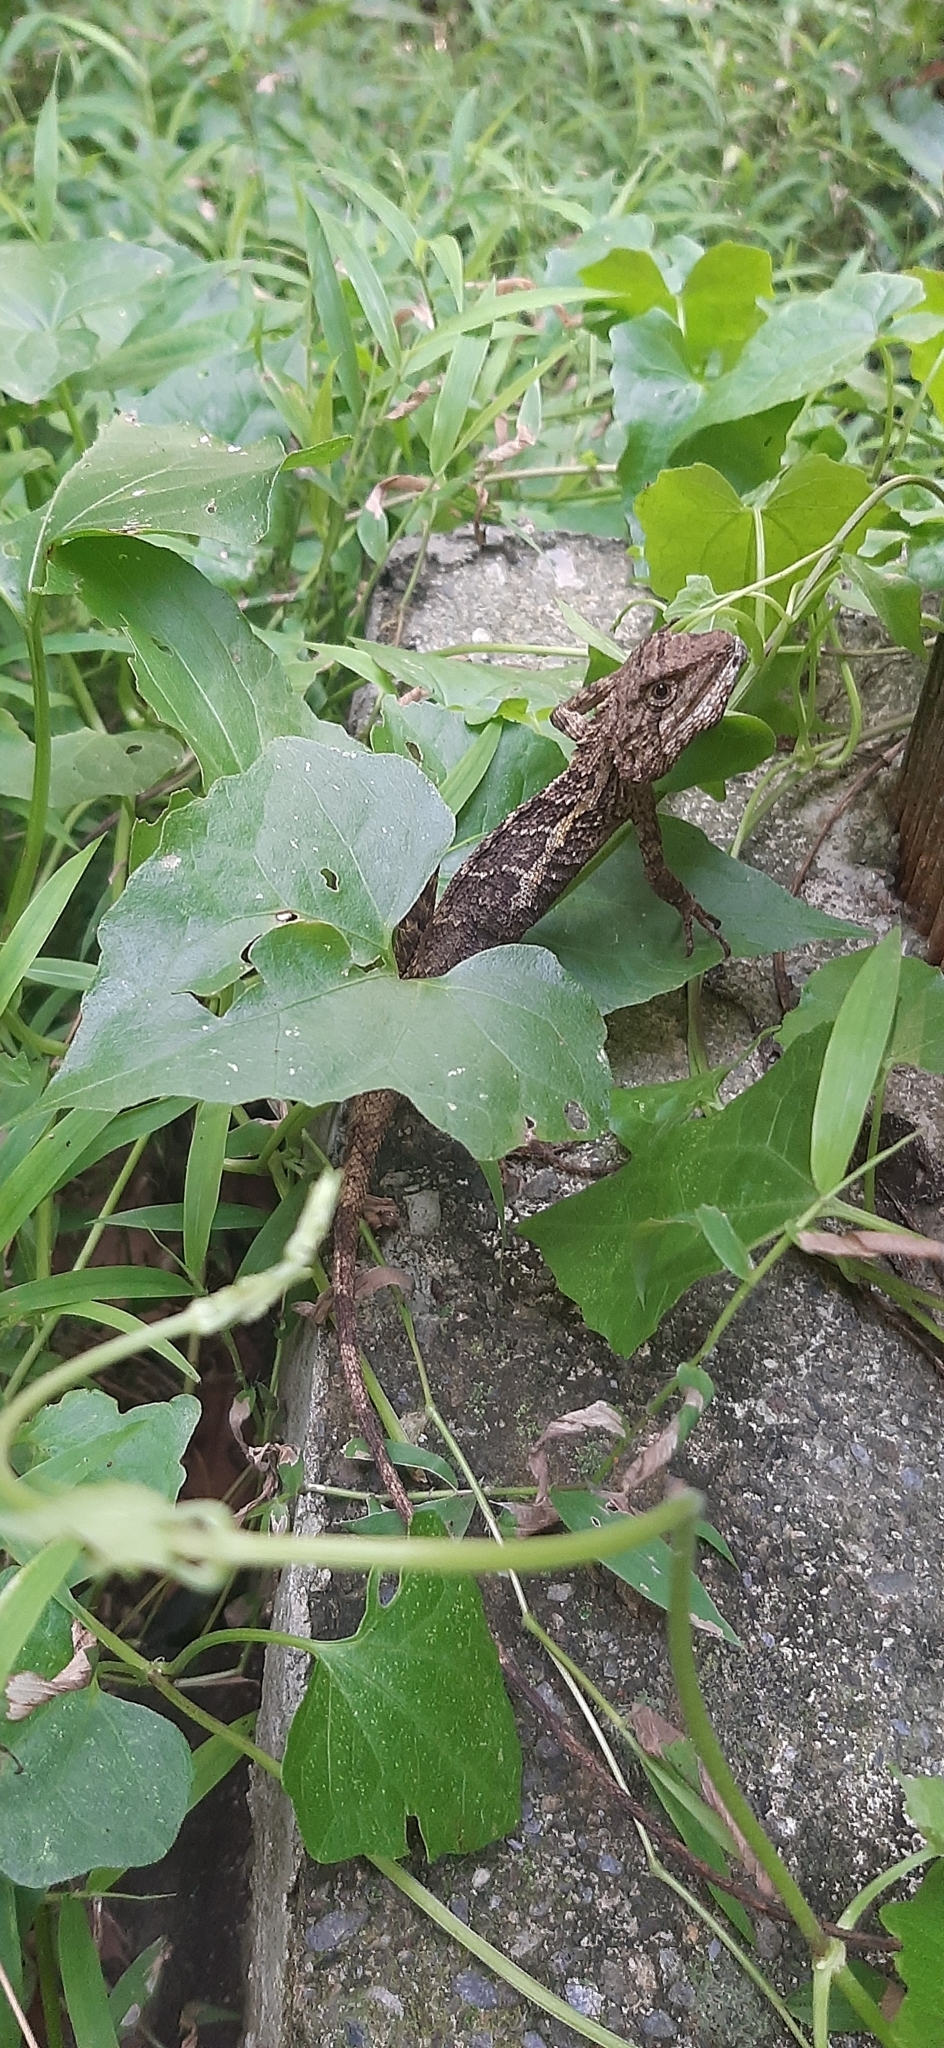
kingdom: Animalia
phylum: Chordata
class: Squamata
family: Agamidae
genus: Diploderma
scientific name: Diploderma swinhonis
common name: Taiwan japalure
